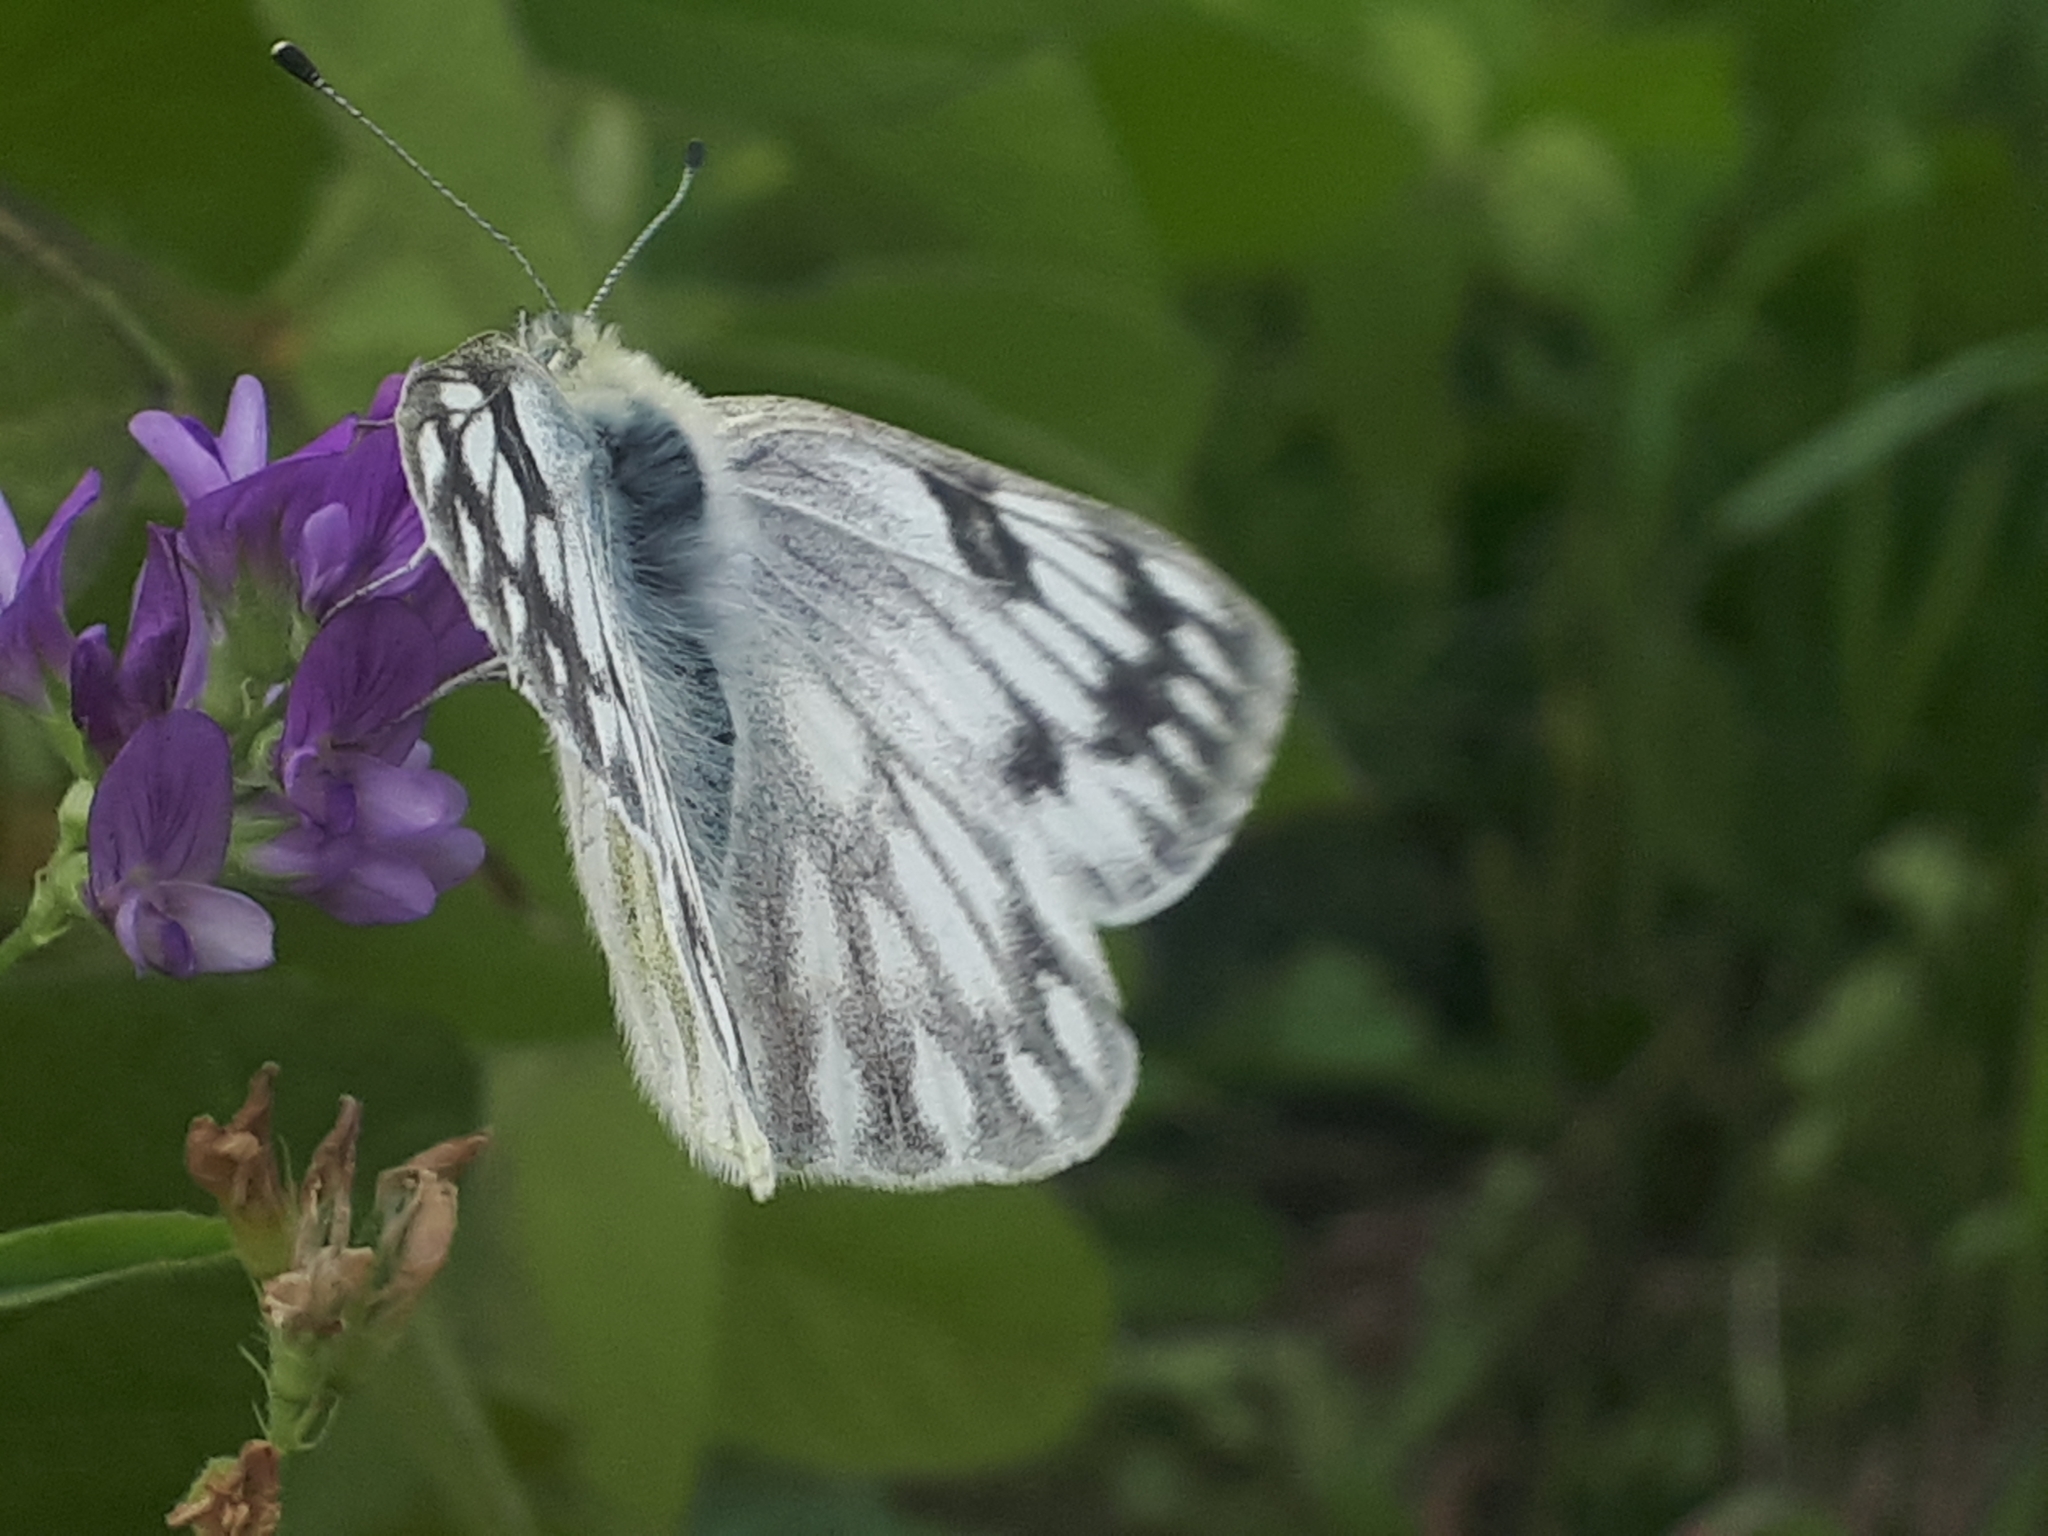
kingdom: Animalia
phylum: Arthropoda
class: Insecta
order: Lepidoptera
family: Pieridae
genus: Pontia
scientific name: Pontia occidentalis
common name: Western white
